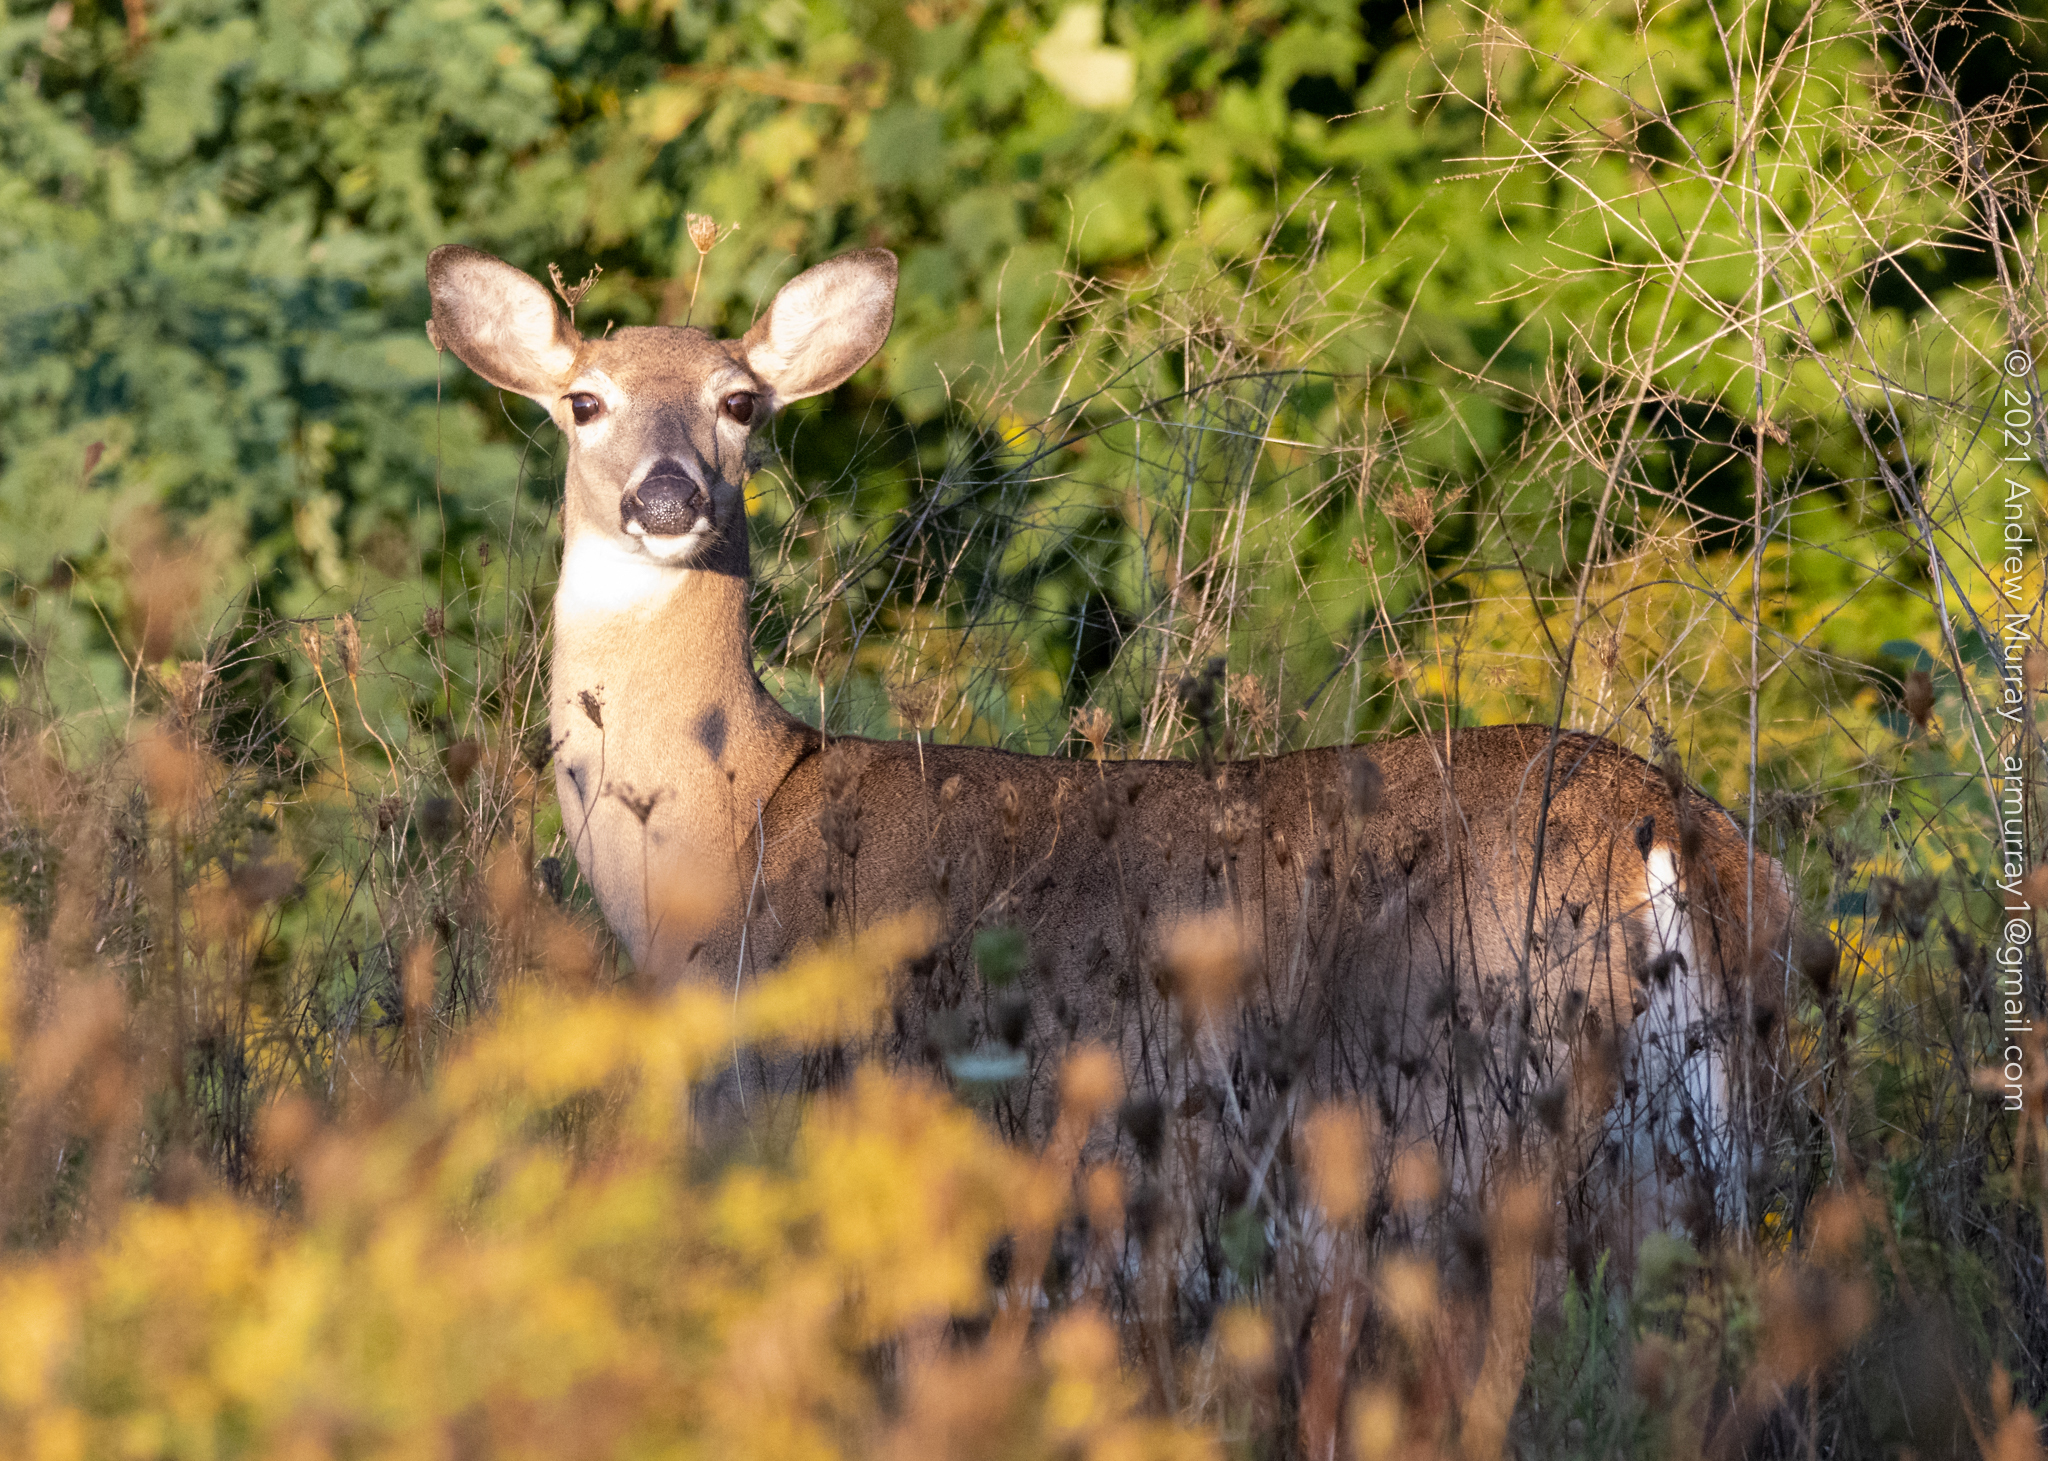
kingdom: Animalia
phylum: Chordata
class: Mammalia
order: Artiodactyla
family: Cervidae
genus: Odocoileus
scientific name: Odocoileus virginianus
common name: White-tailed deer
